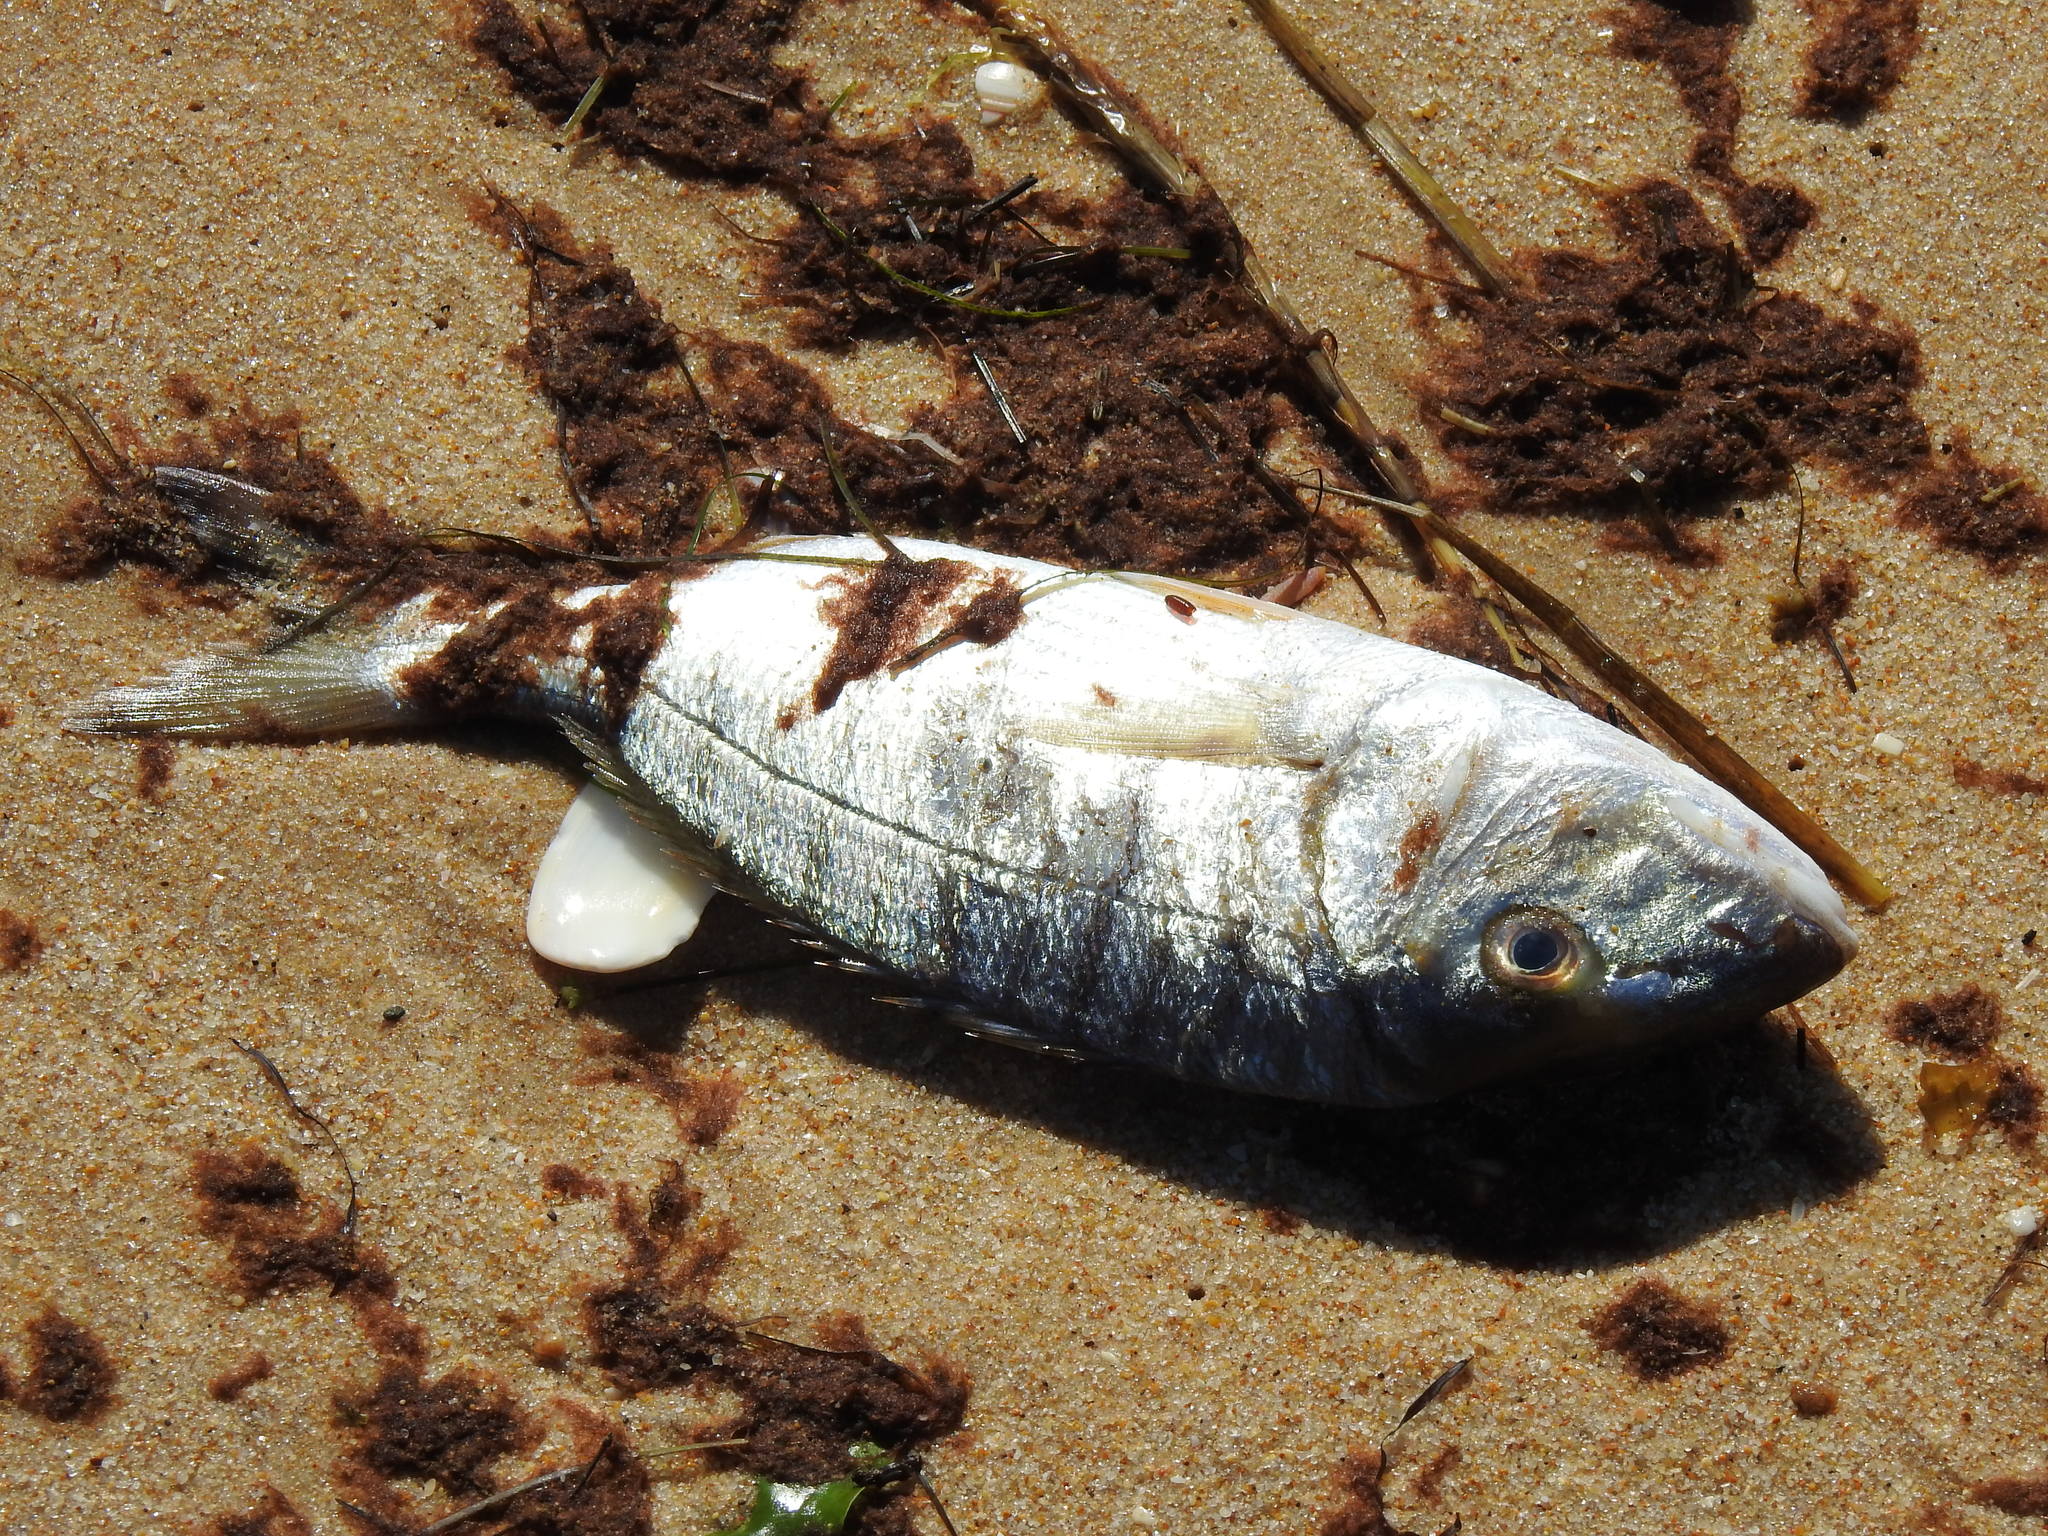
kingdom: Animalia
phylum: Chordata
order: Perciformes
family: Sparidae
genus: Lithognathus
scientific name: Lithognathus mormyrus
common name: Sand steenbras
